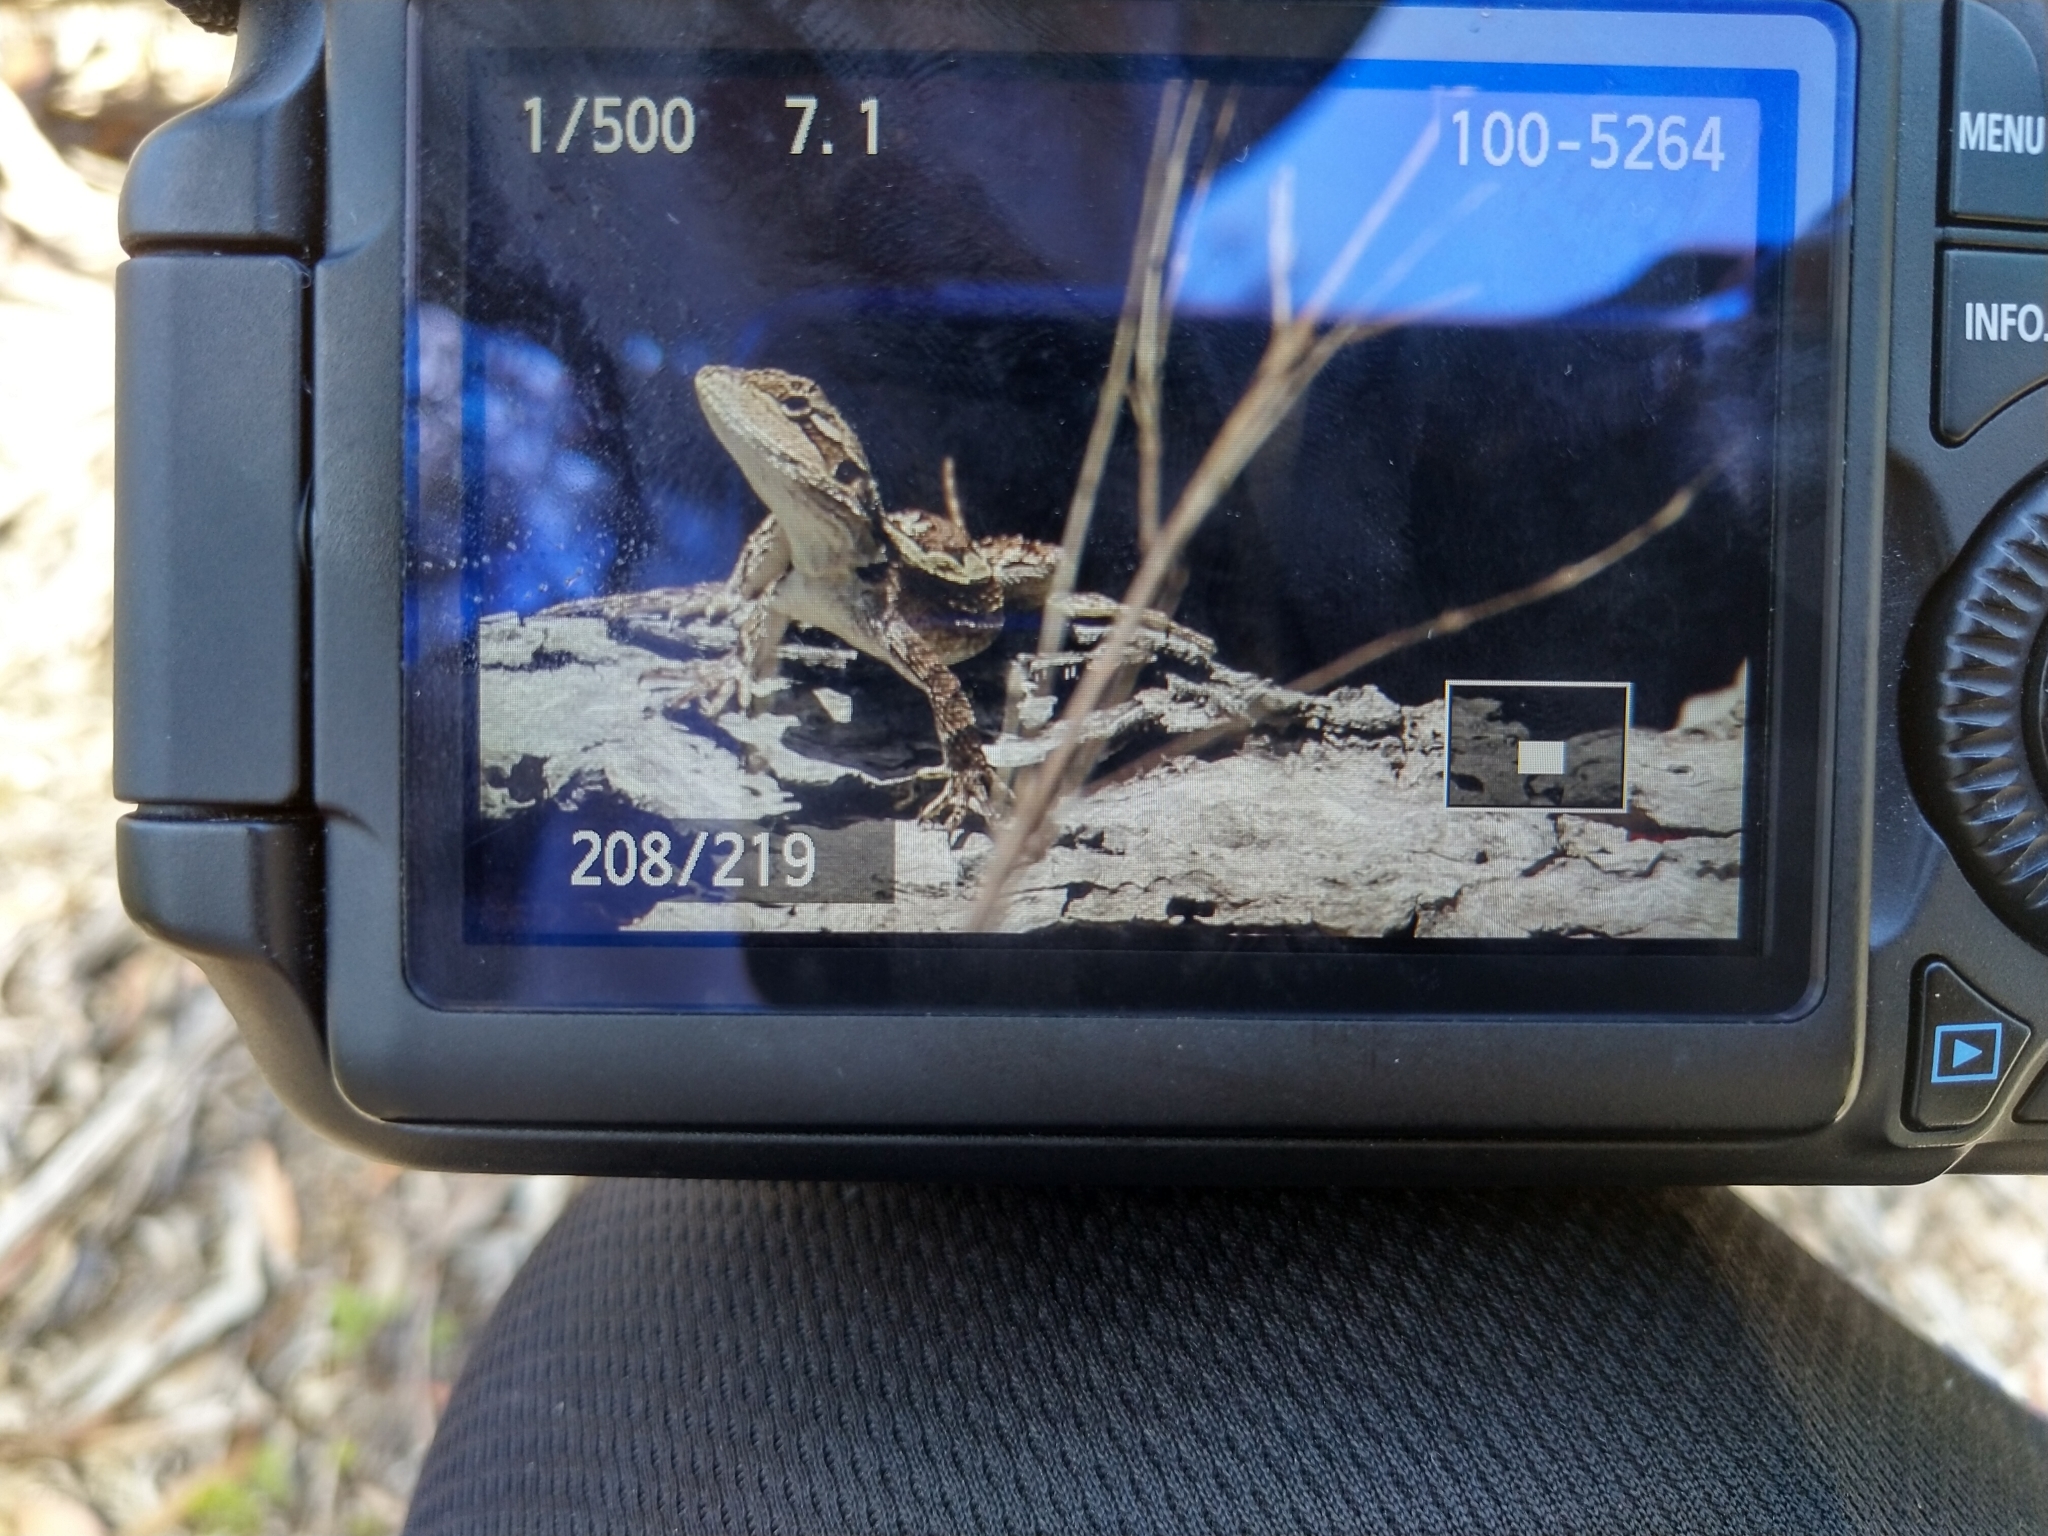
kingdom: Animalia
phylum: Chordata
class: Squamata
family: Agamidae
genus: Amphibolurus
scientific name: Amphibolurus muricatus
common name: Jacky lizard
